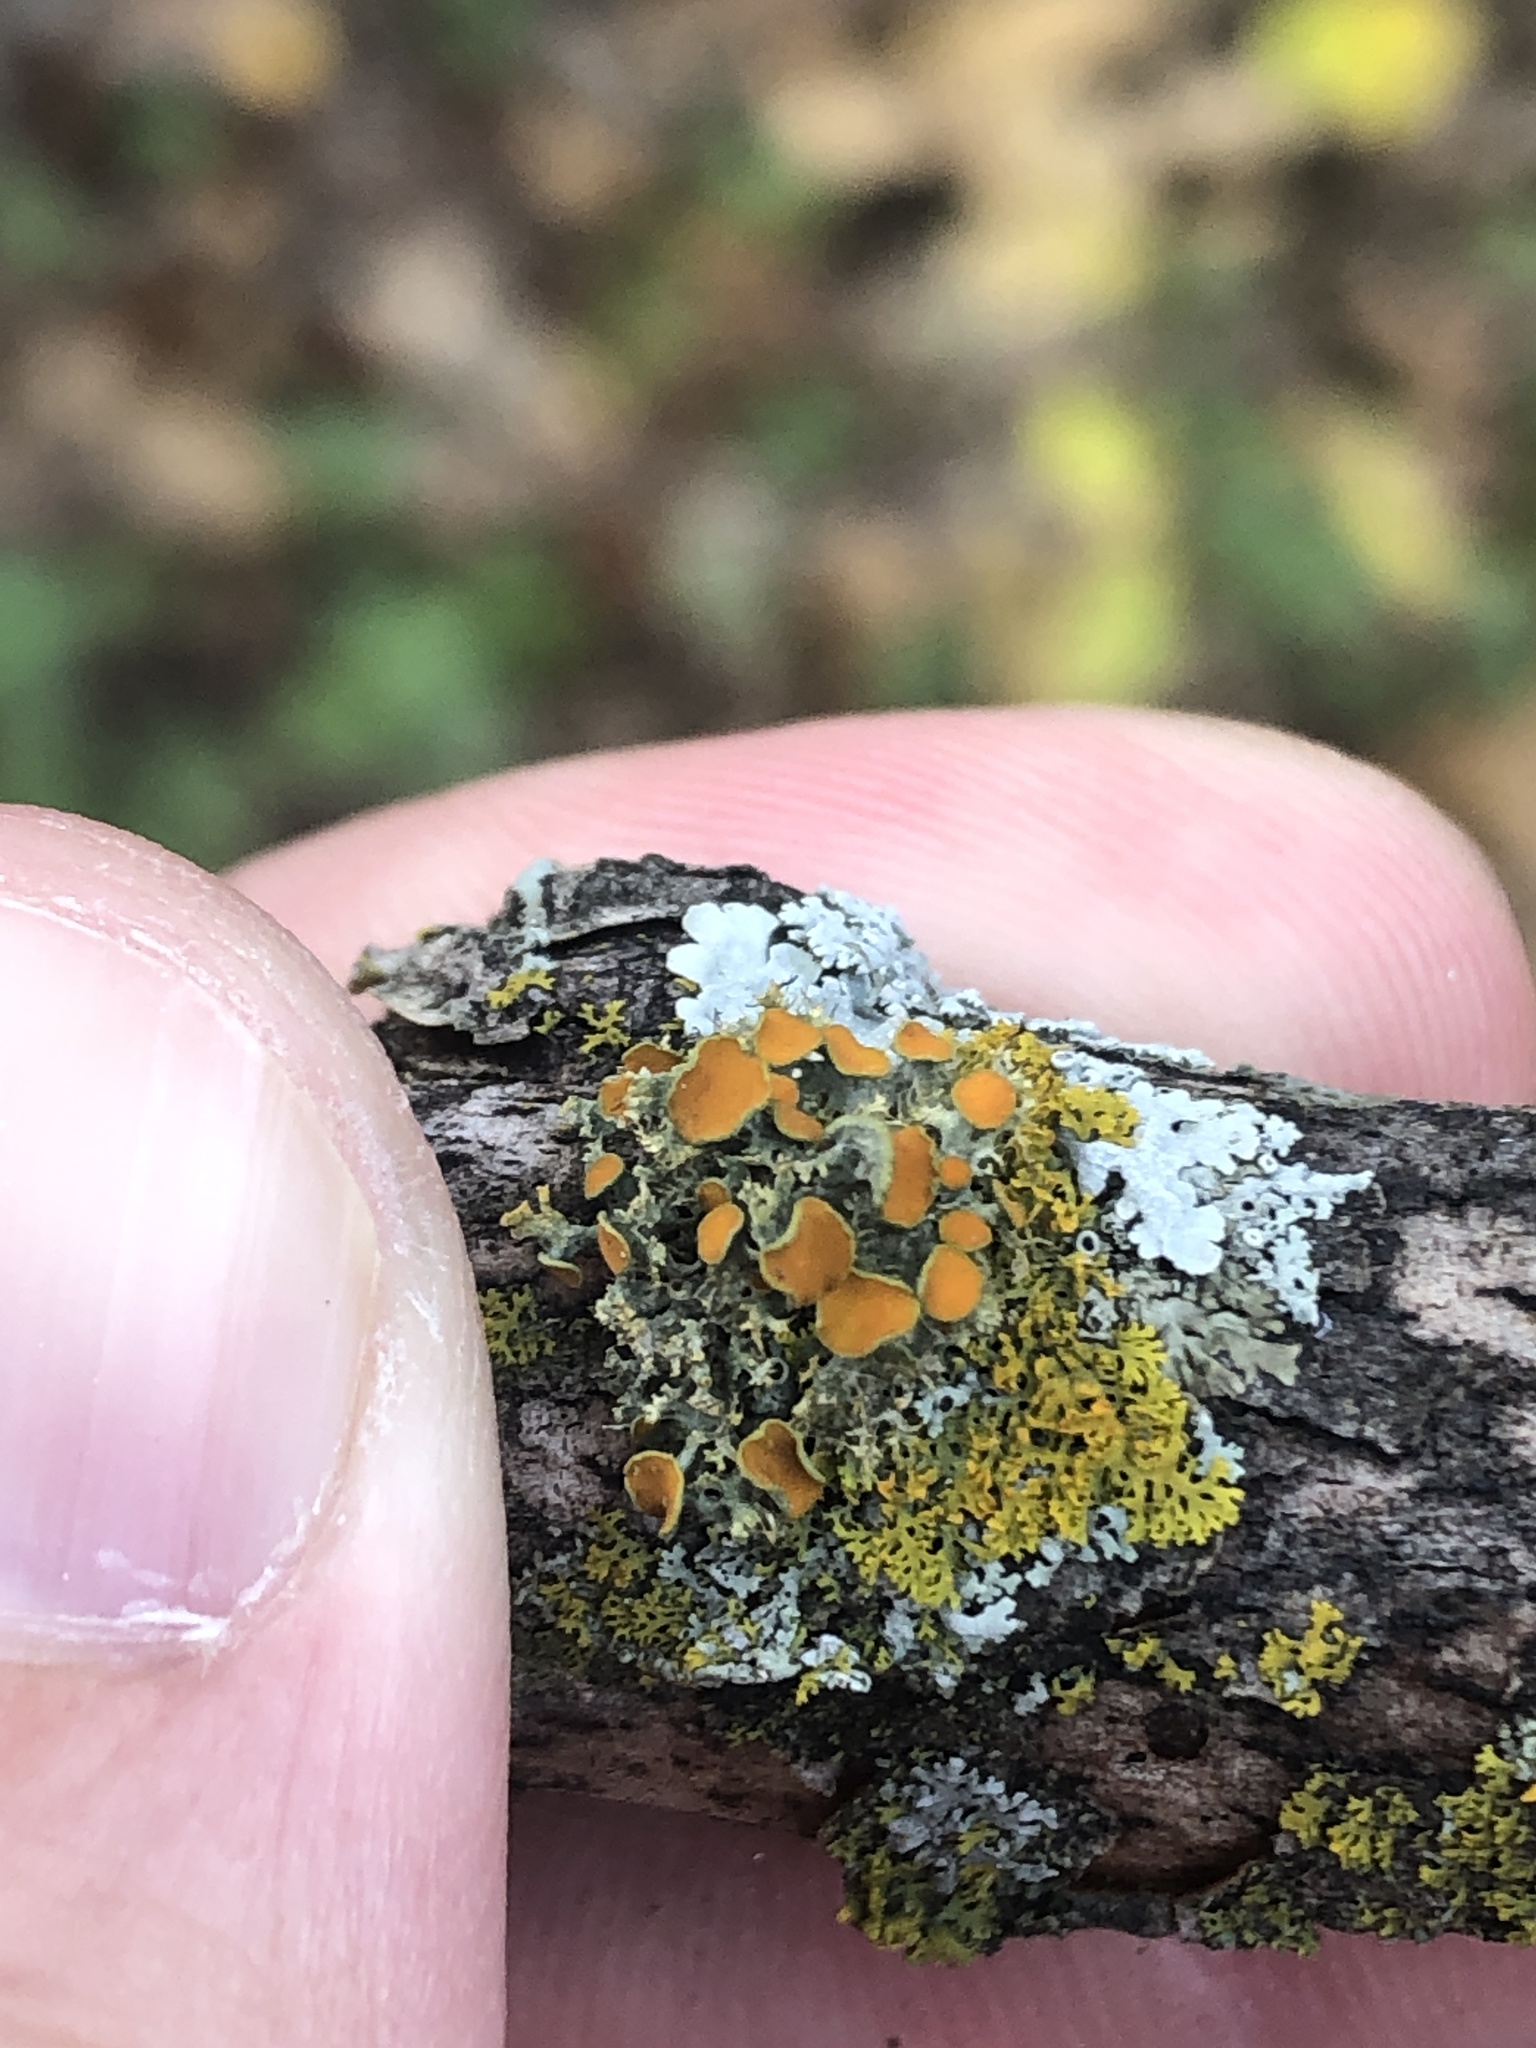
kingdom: Fungi
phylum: Ascomycota
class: Lecanoromycetes
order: Teloschistales
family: Teloschistaceae
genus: Niorma
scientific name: Niorma chrysophthalma
